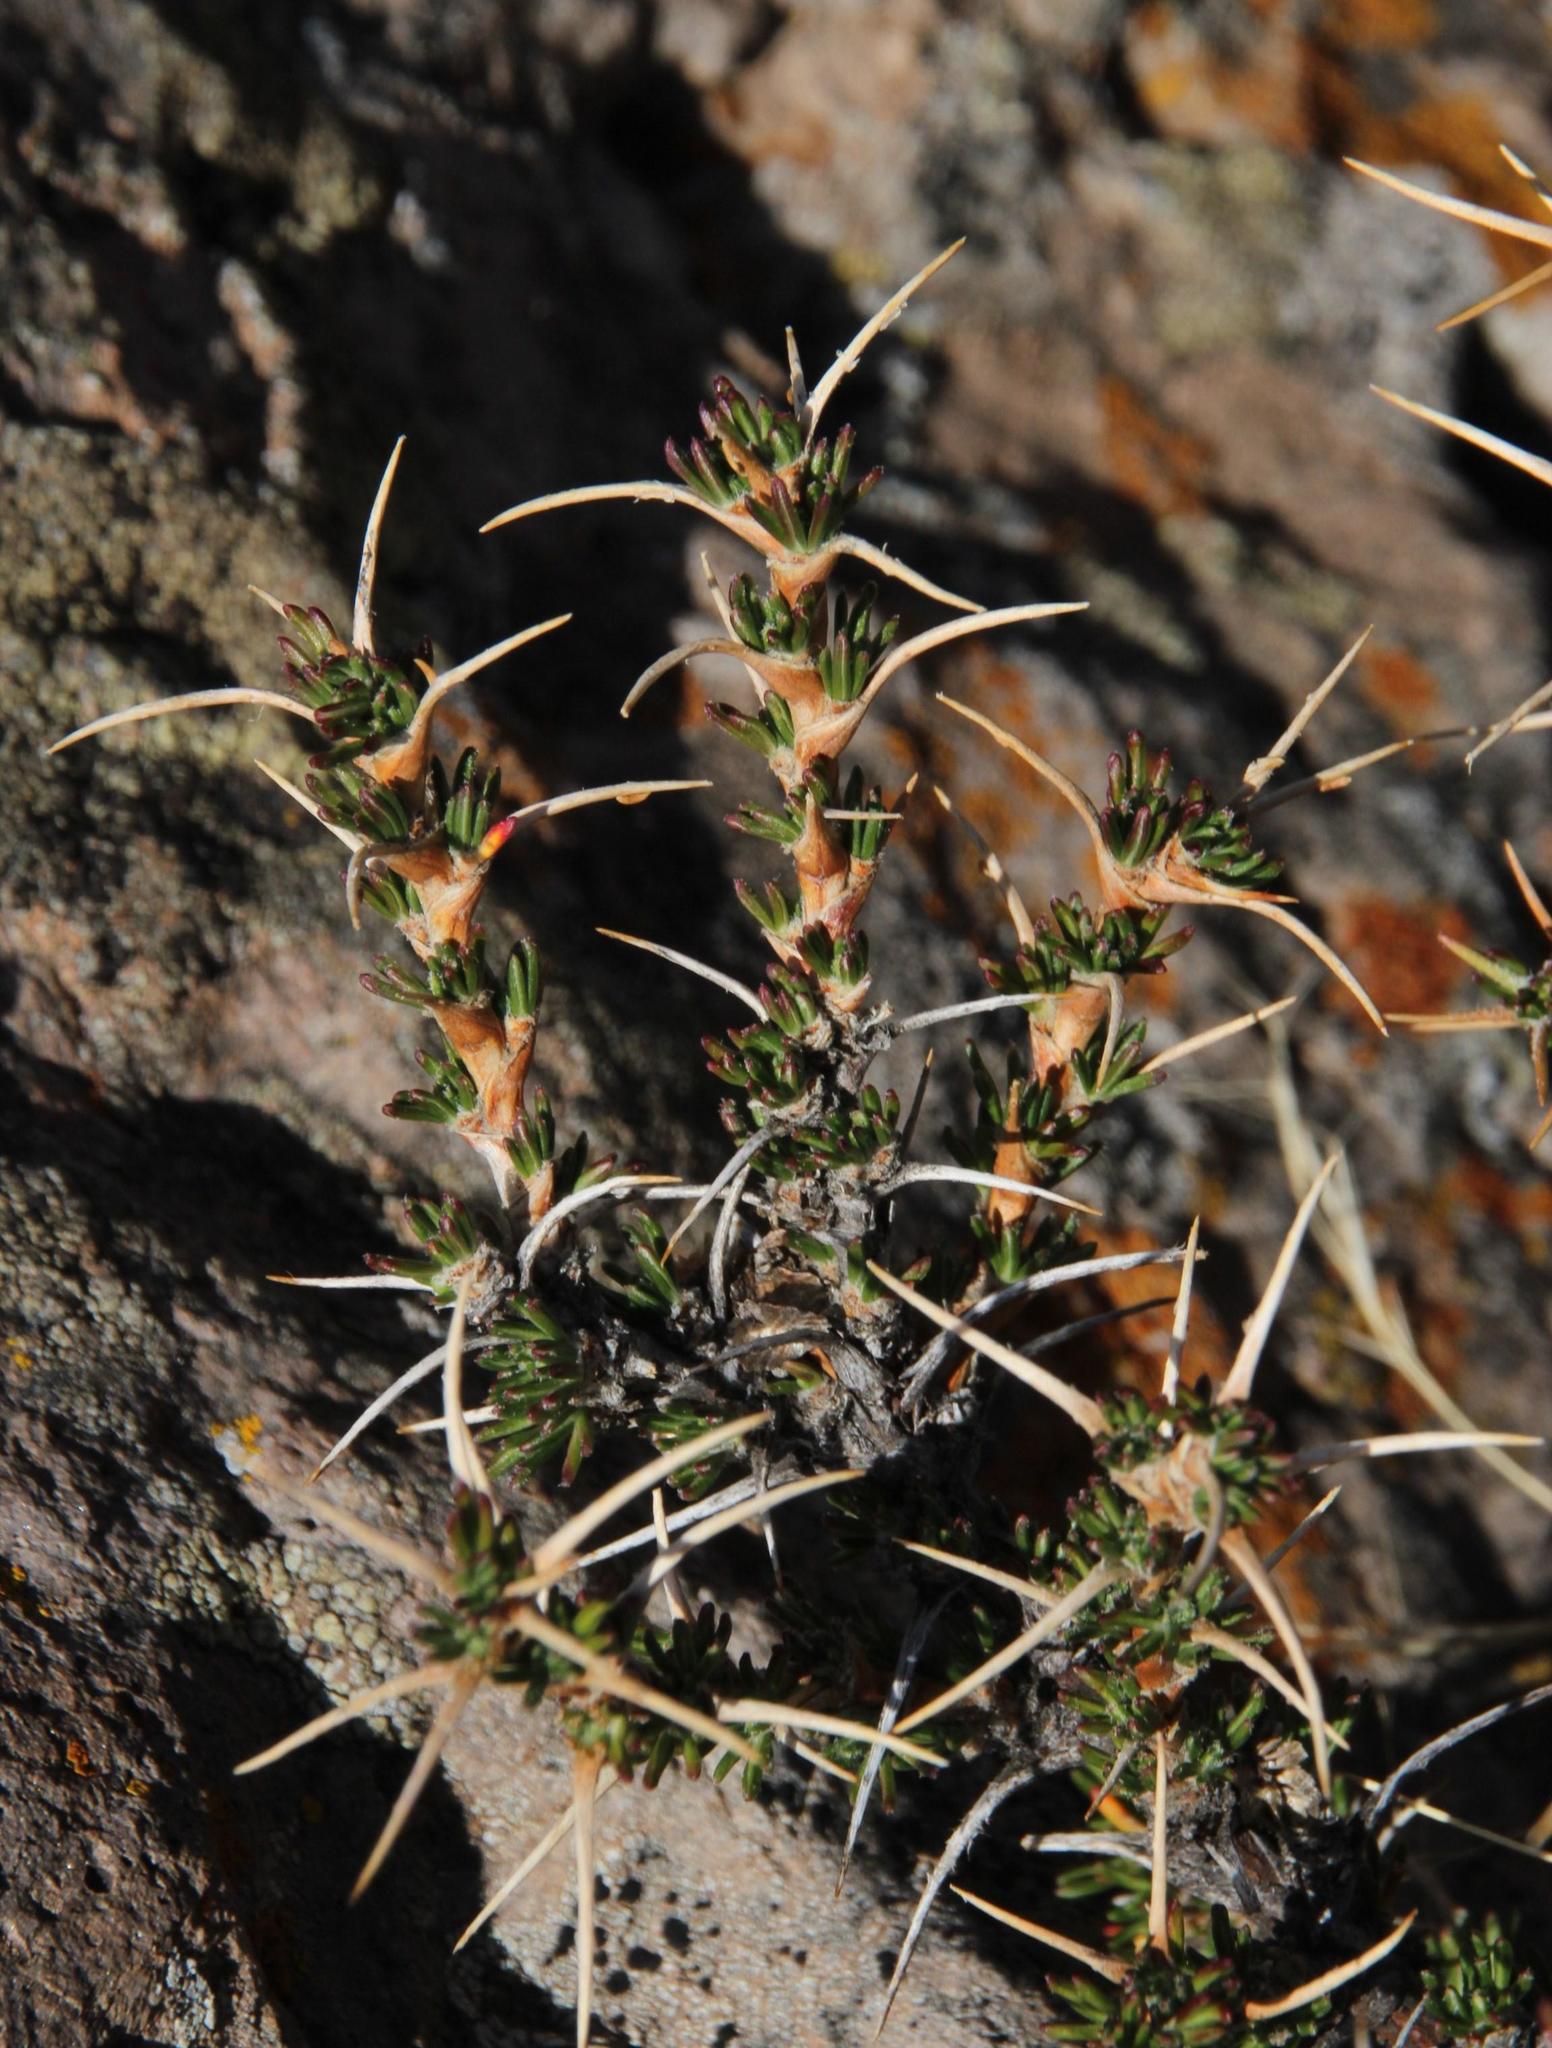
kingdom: Plantae
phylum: Tracheophyta
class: Magnoliopsida
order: Rosales
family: Rosaceae
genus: Margyricarpus
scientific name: Margyricarpus cristatus
